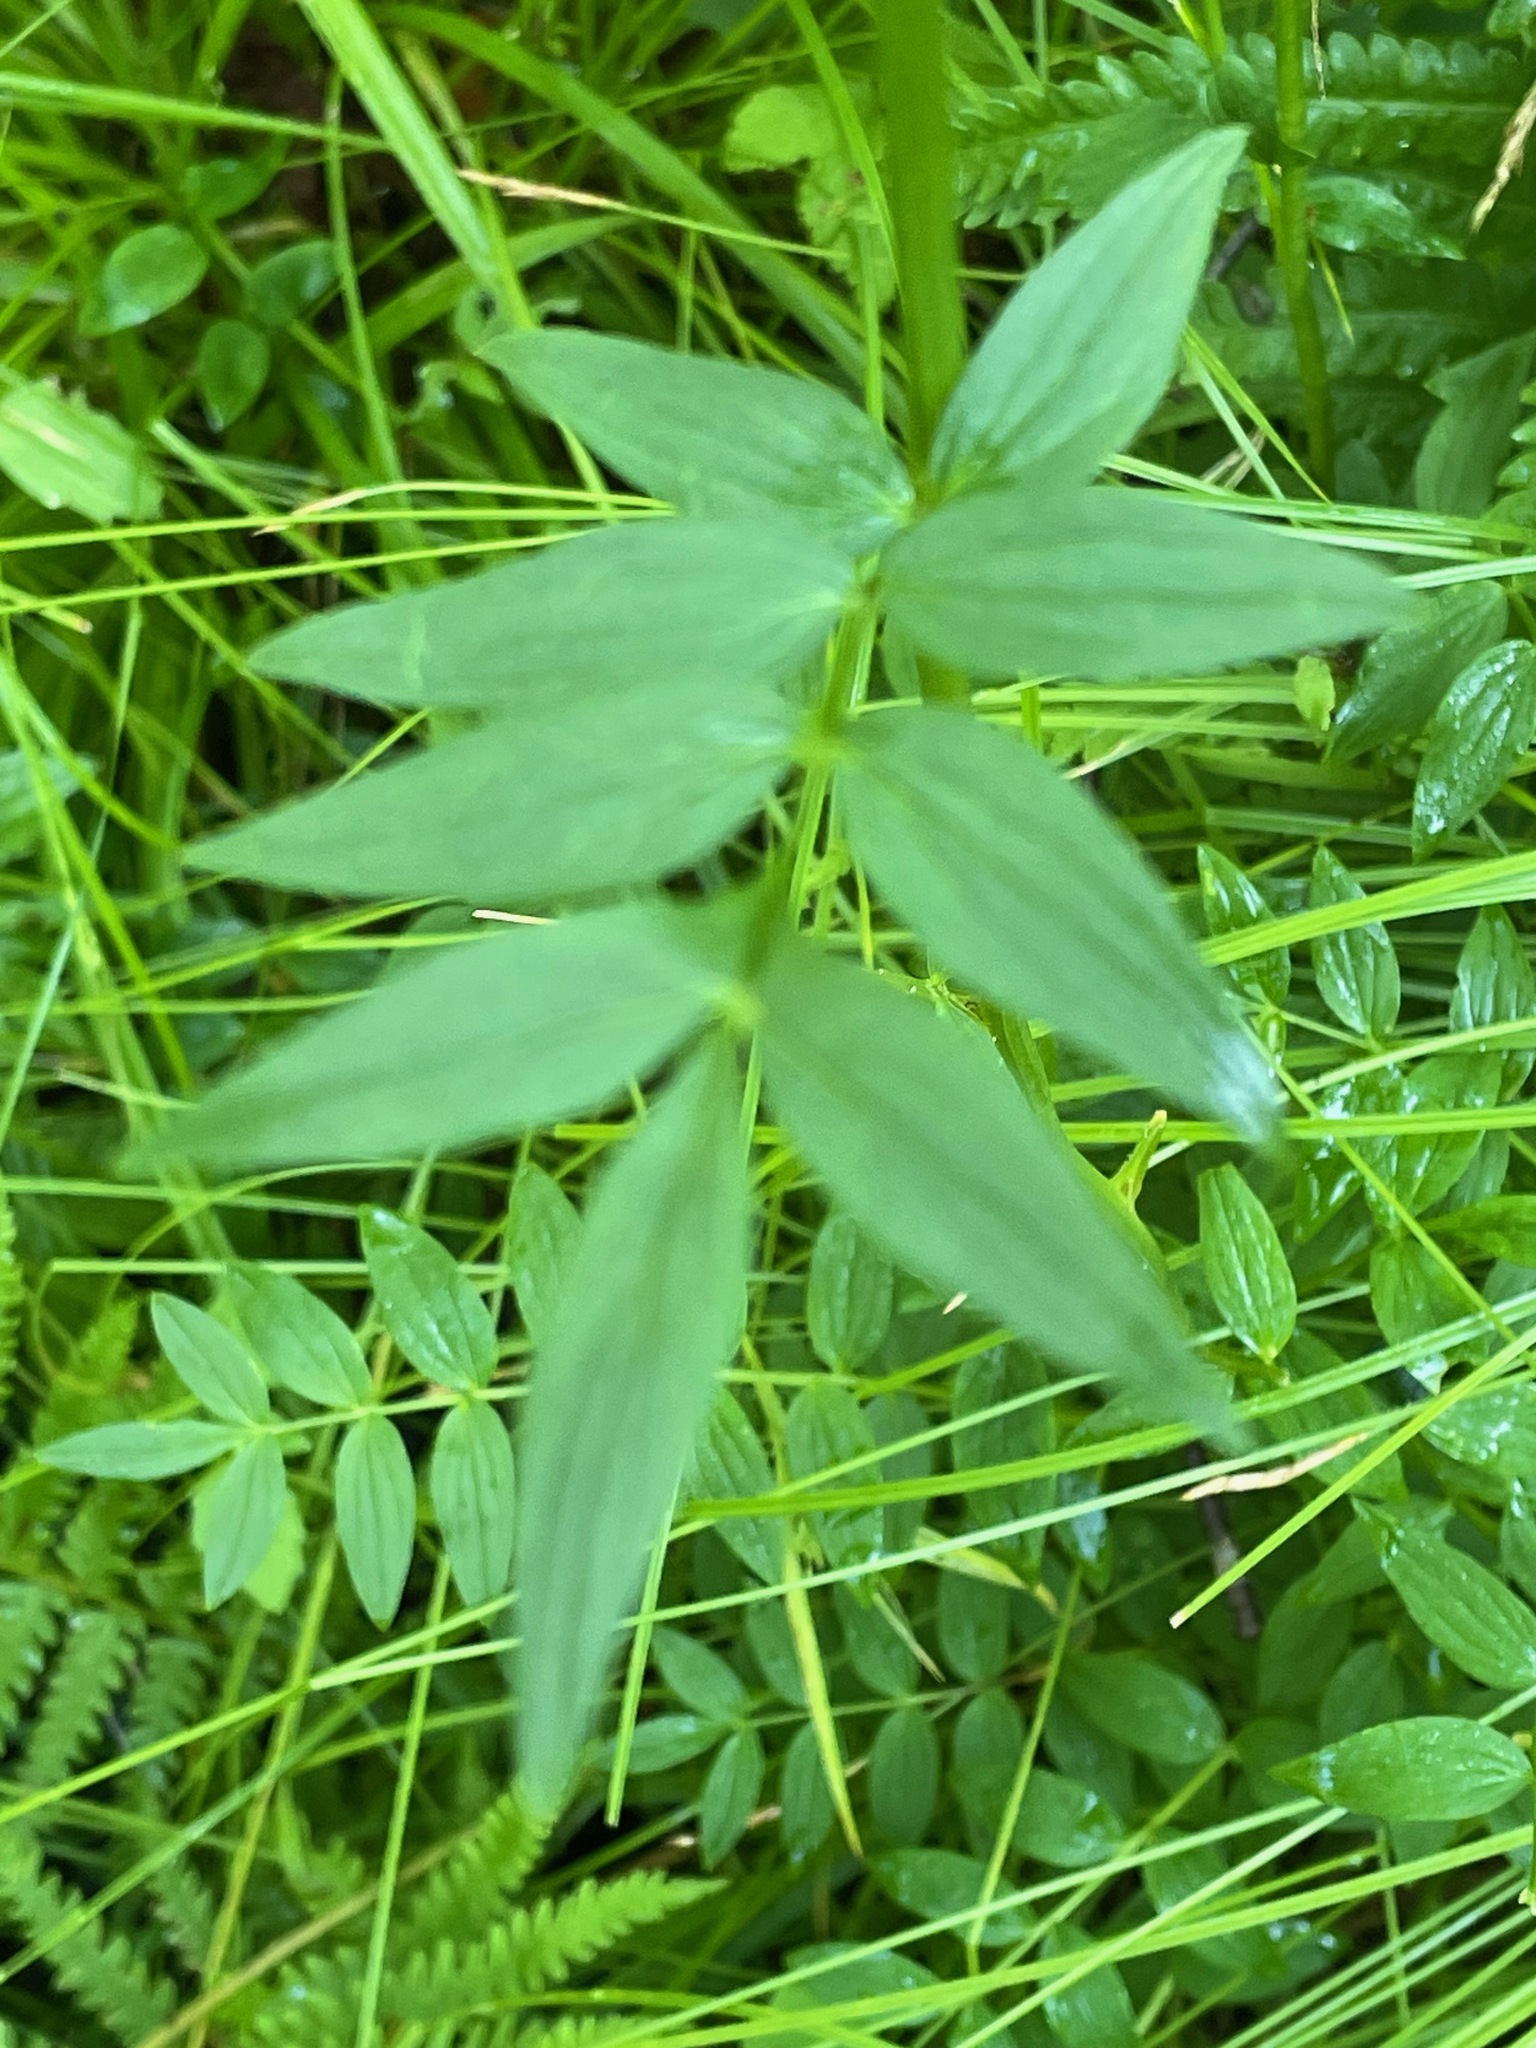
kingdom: Plantae
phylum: Tracheophyta
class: Magnoliopsida
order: Ericales
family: Polemoniaceae
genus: Polemonium
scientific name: Polemonium vanbruntiae
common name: Bog jacob's-ladder
